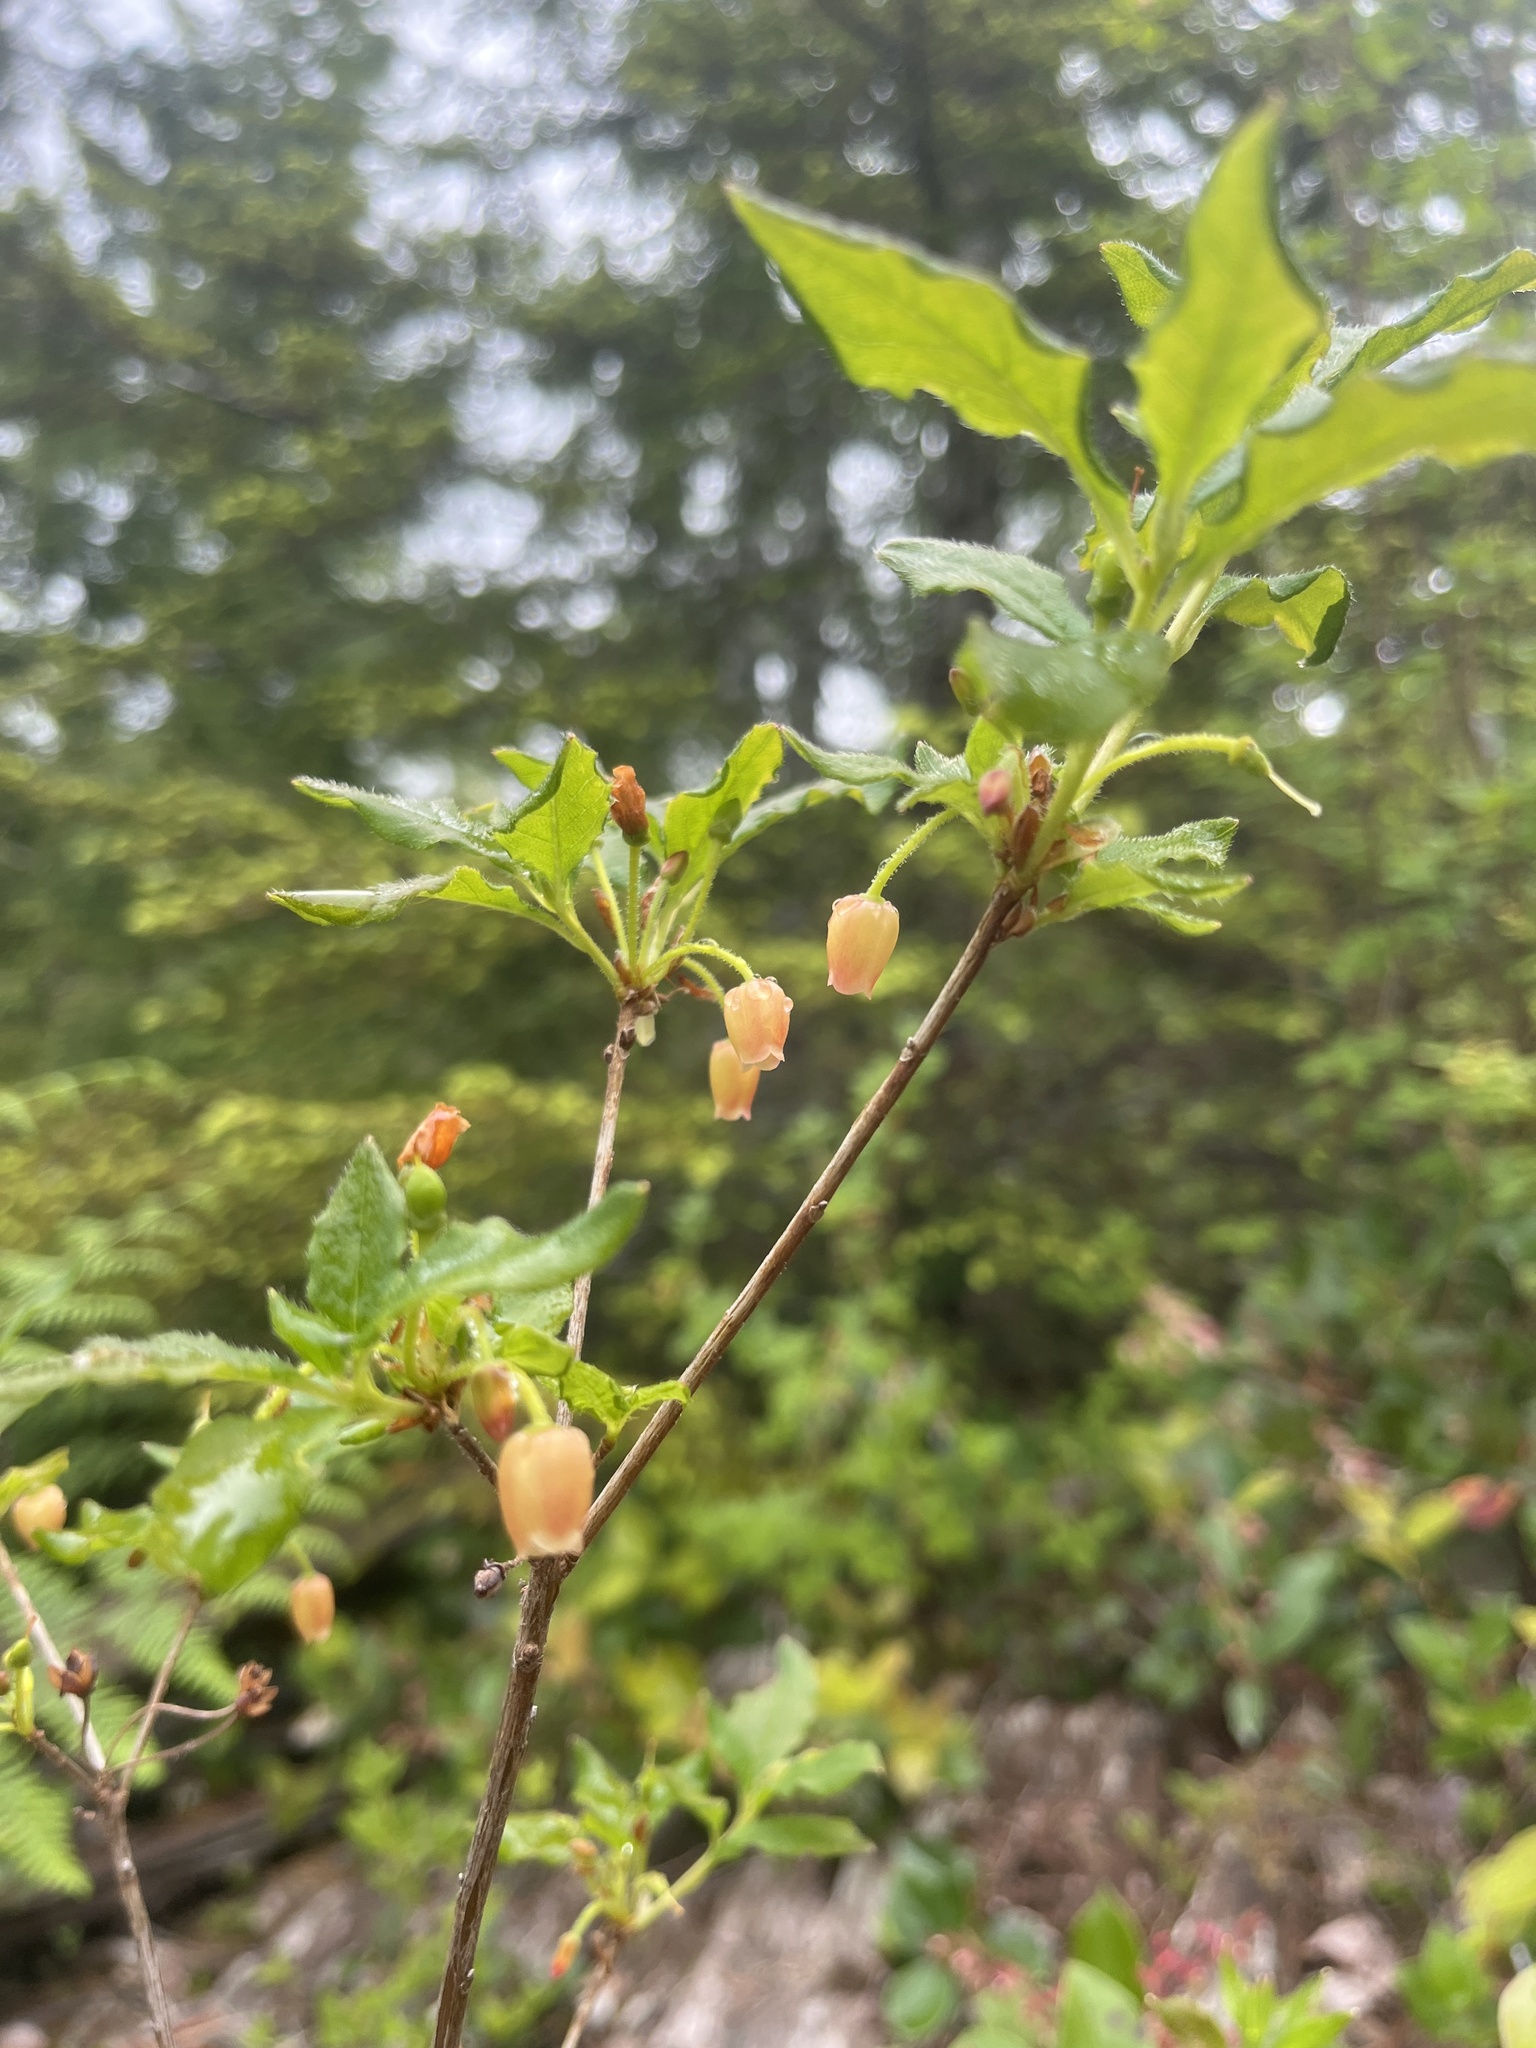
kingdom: Plantae
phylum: Tracheophyta
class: Magnoliopsida
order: Ericales
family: Ericaceae
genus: Rhododendron
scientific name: Rhododendron menziesii
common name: Pacific menziesia
